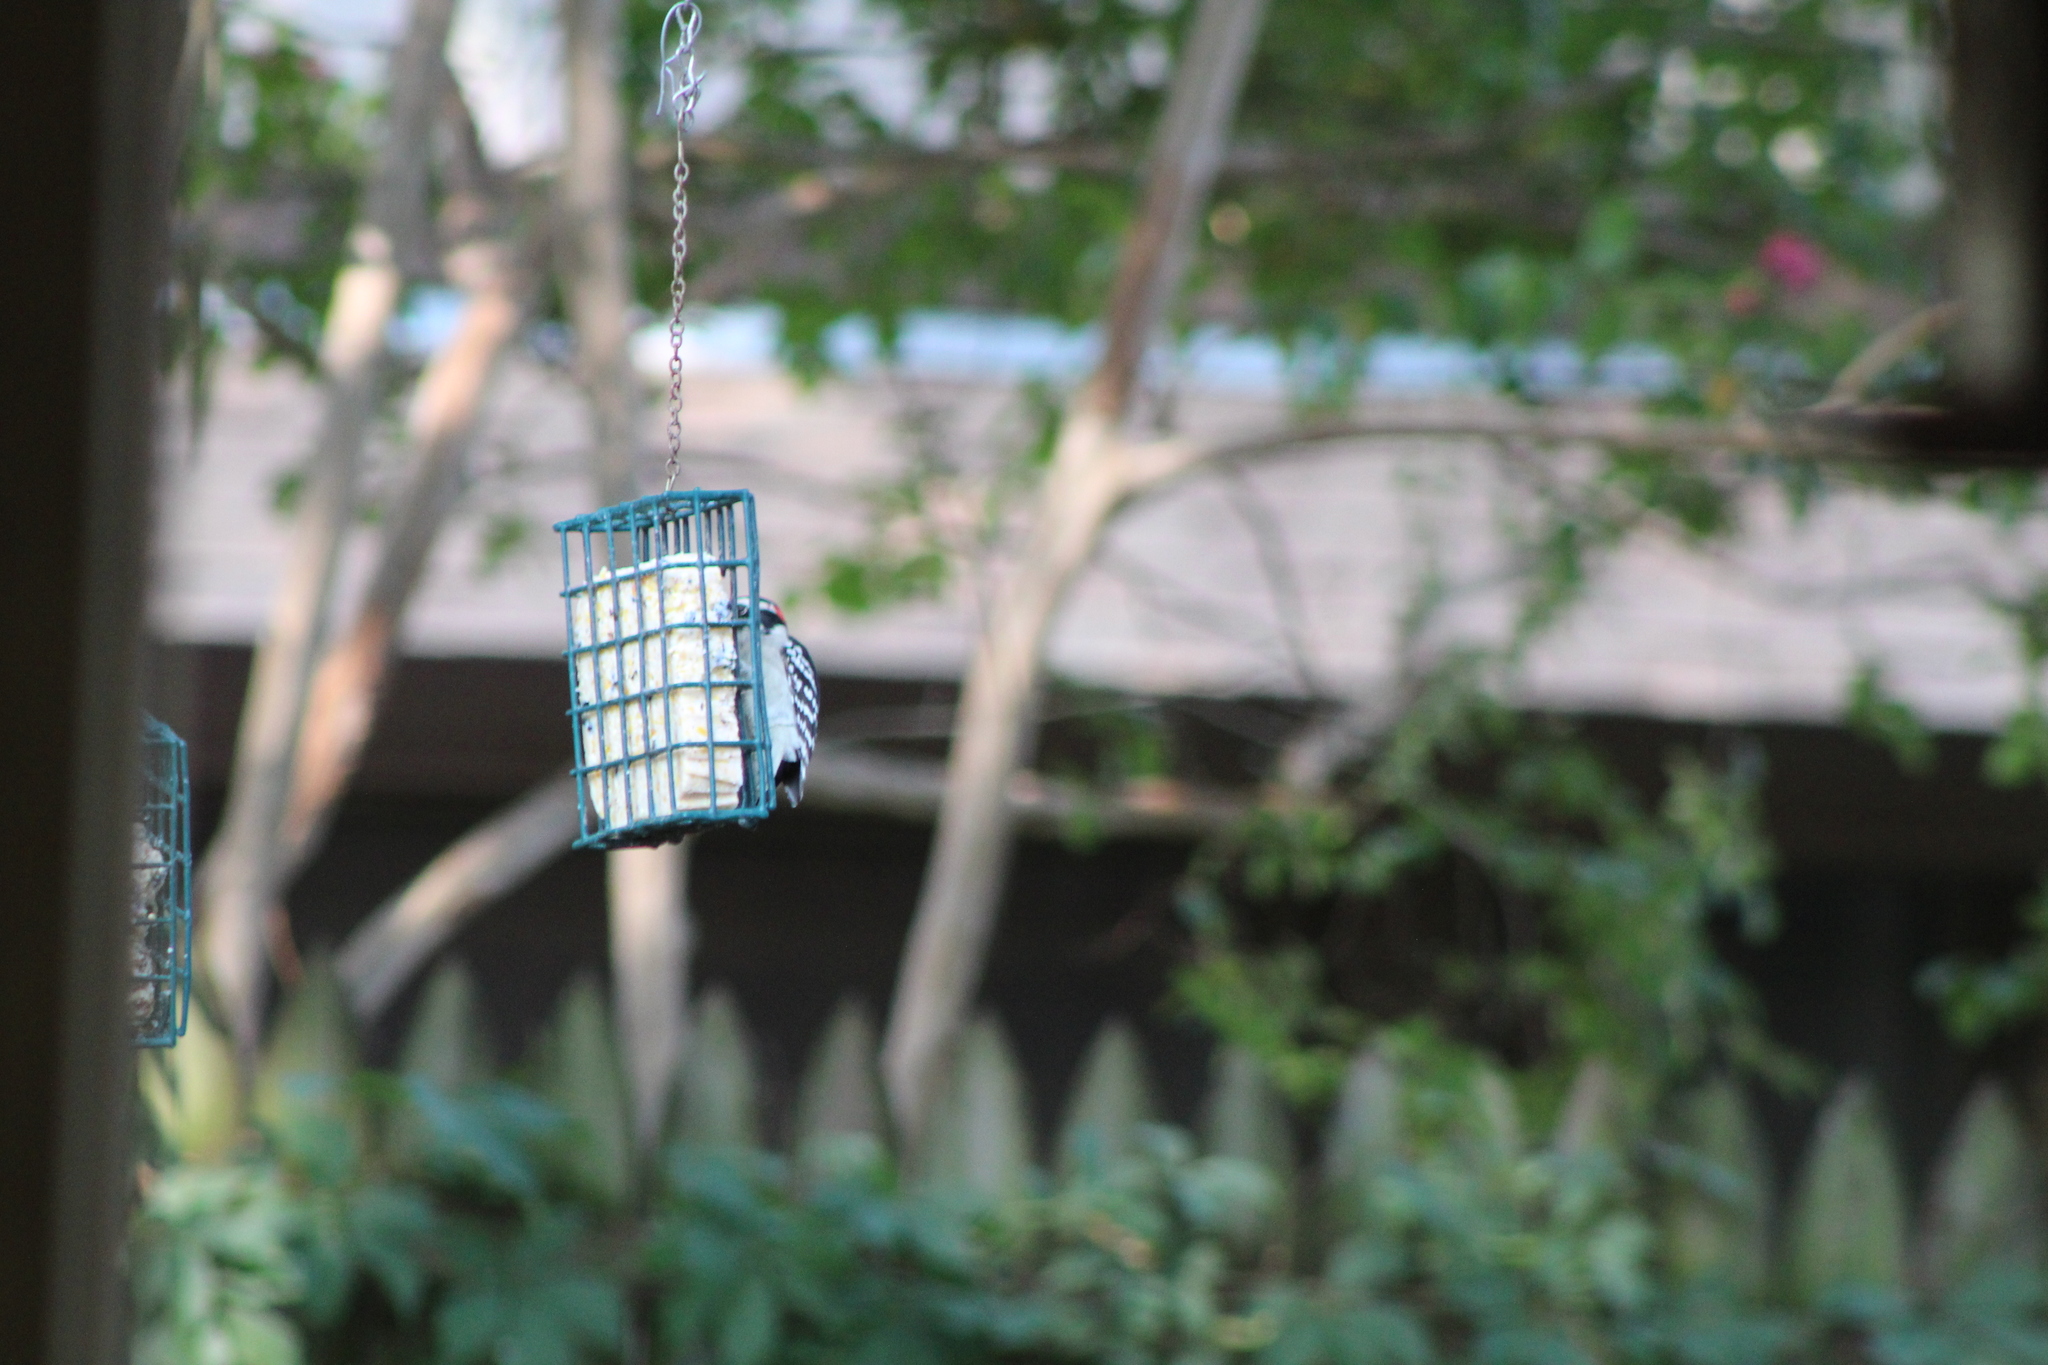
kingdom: Animalia
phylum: Chordata
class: Aves
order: Piciformes
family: Picidae
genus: Dryobates
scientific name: Dryobates pubescens
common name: Downy woodpecker
